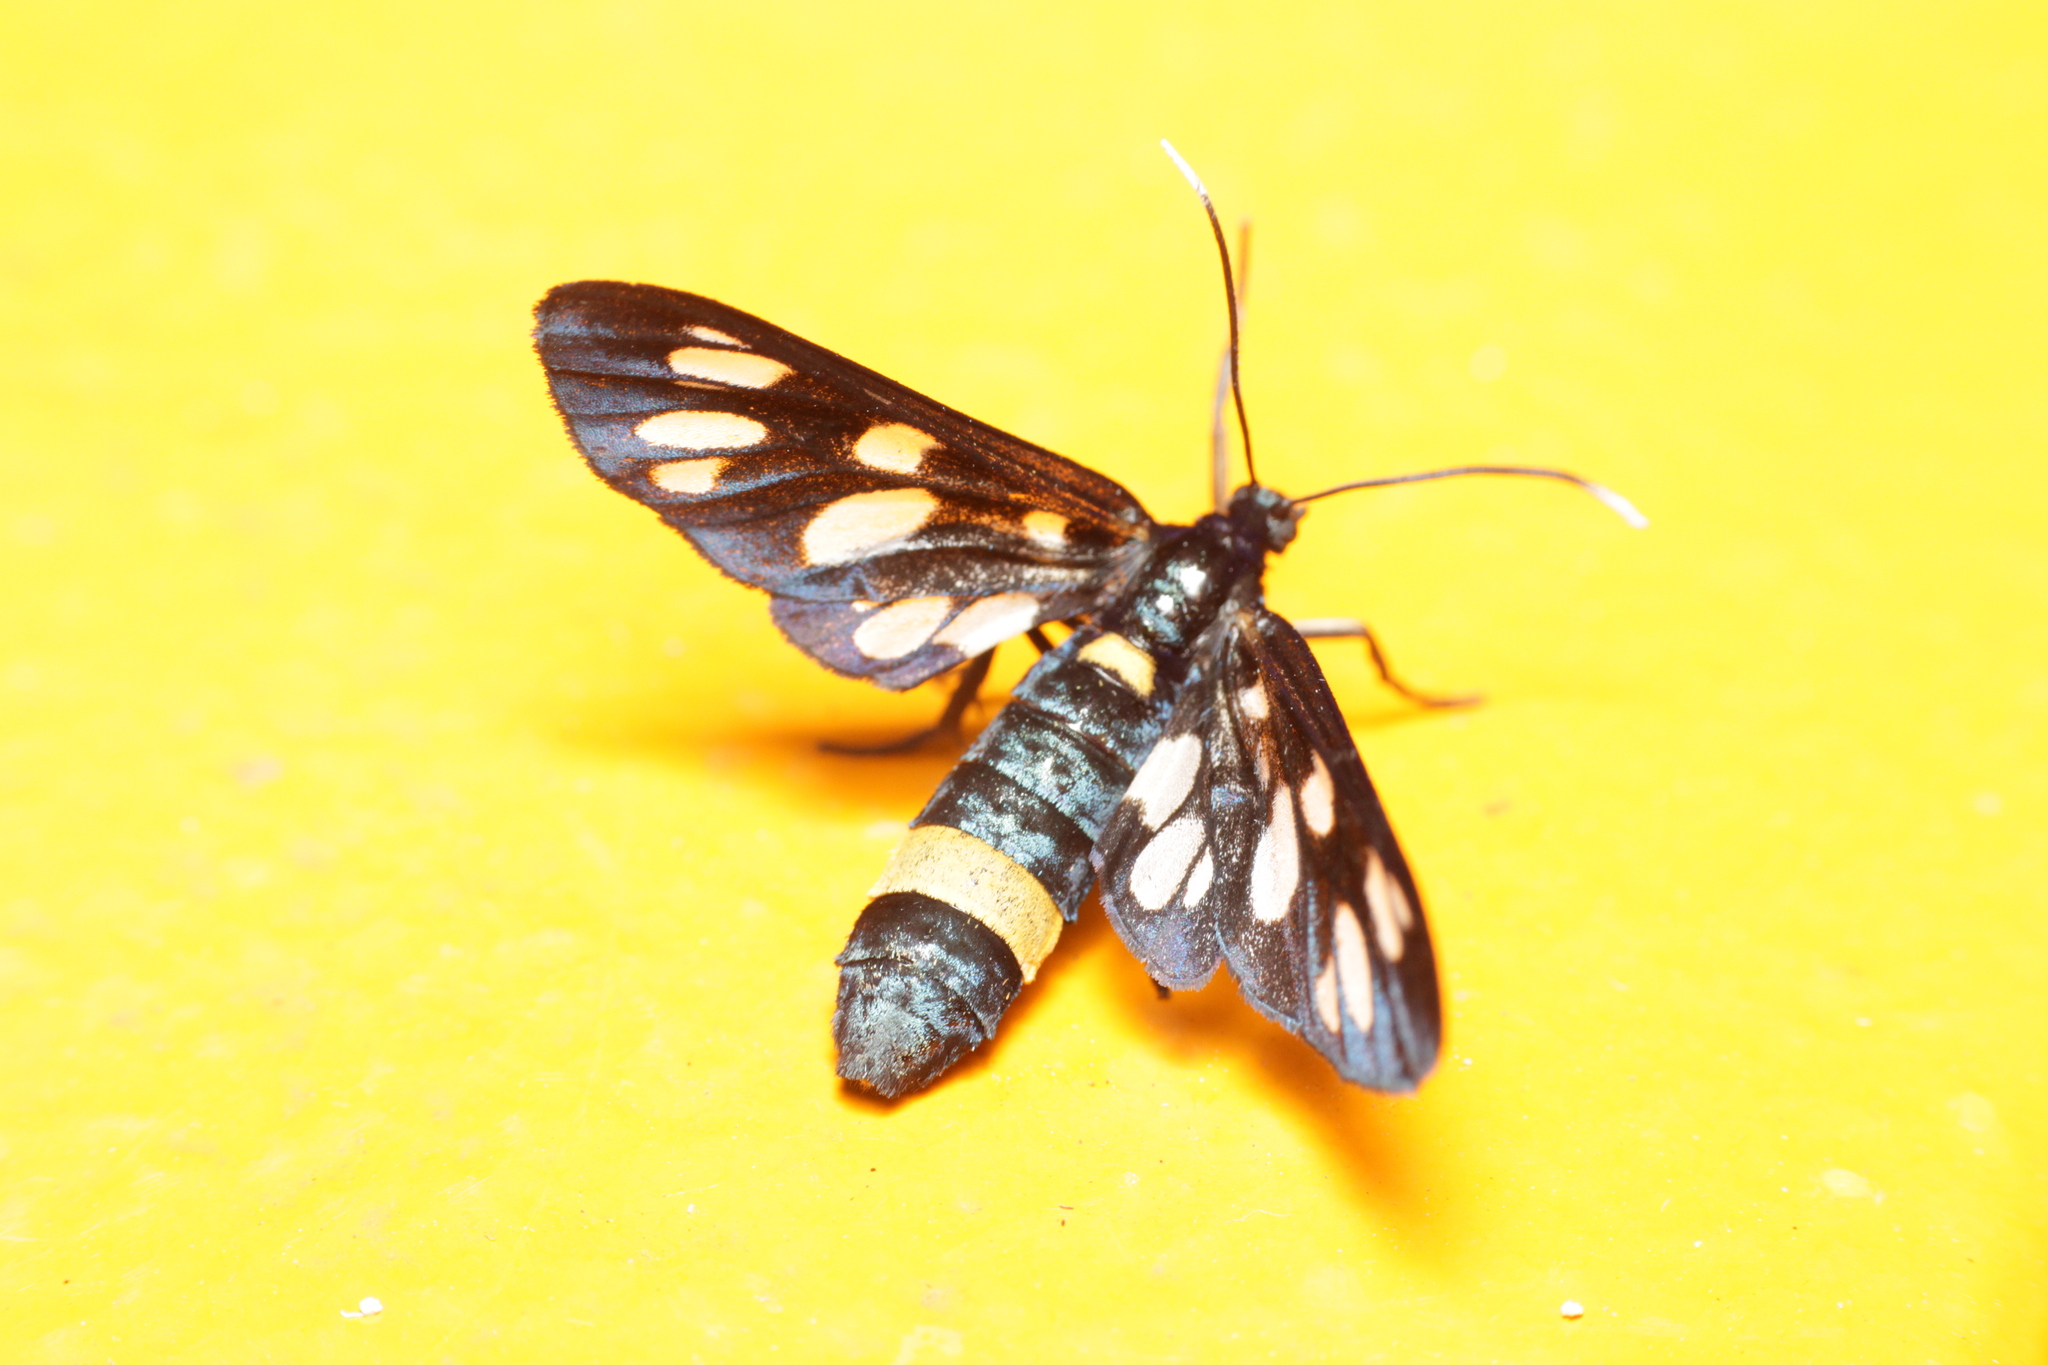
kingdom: Animalia
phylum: Arthropoda
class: Insecta
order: Lepidoptera
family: Erebidae
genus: Amata
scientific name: Amata phegea
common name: Nine-spotted
